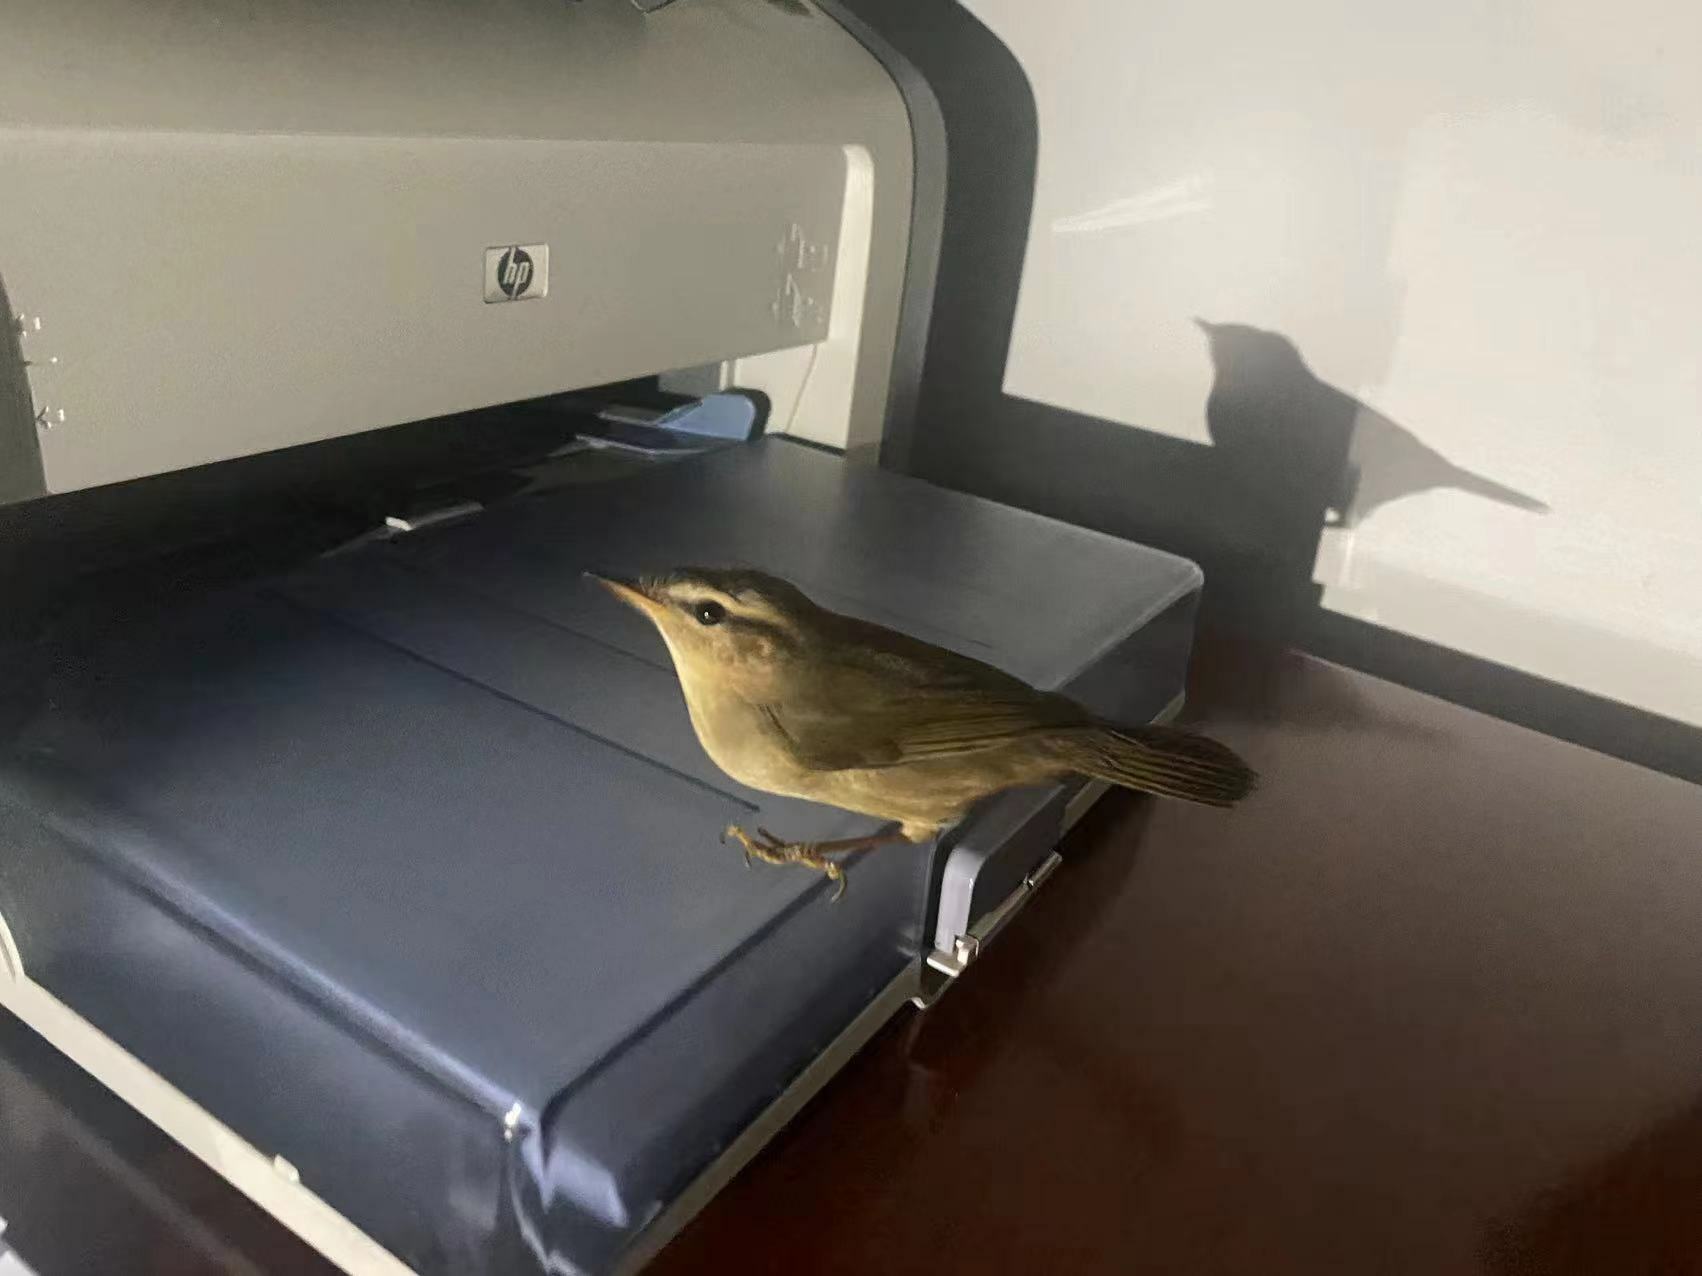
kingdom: Animalia
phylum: Chordata
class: Aves
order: Passeriformes
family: Phylloscopidae
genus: Phylloscopus
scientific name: Phylloscopus fuscatus
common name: Dusky warbler
